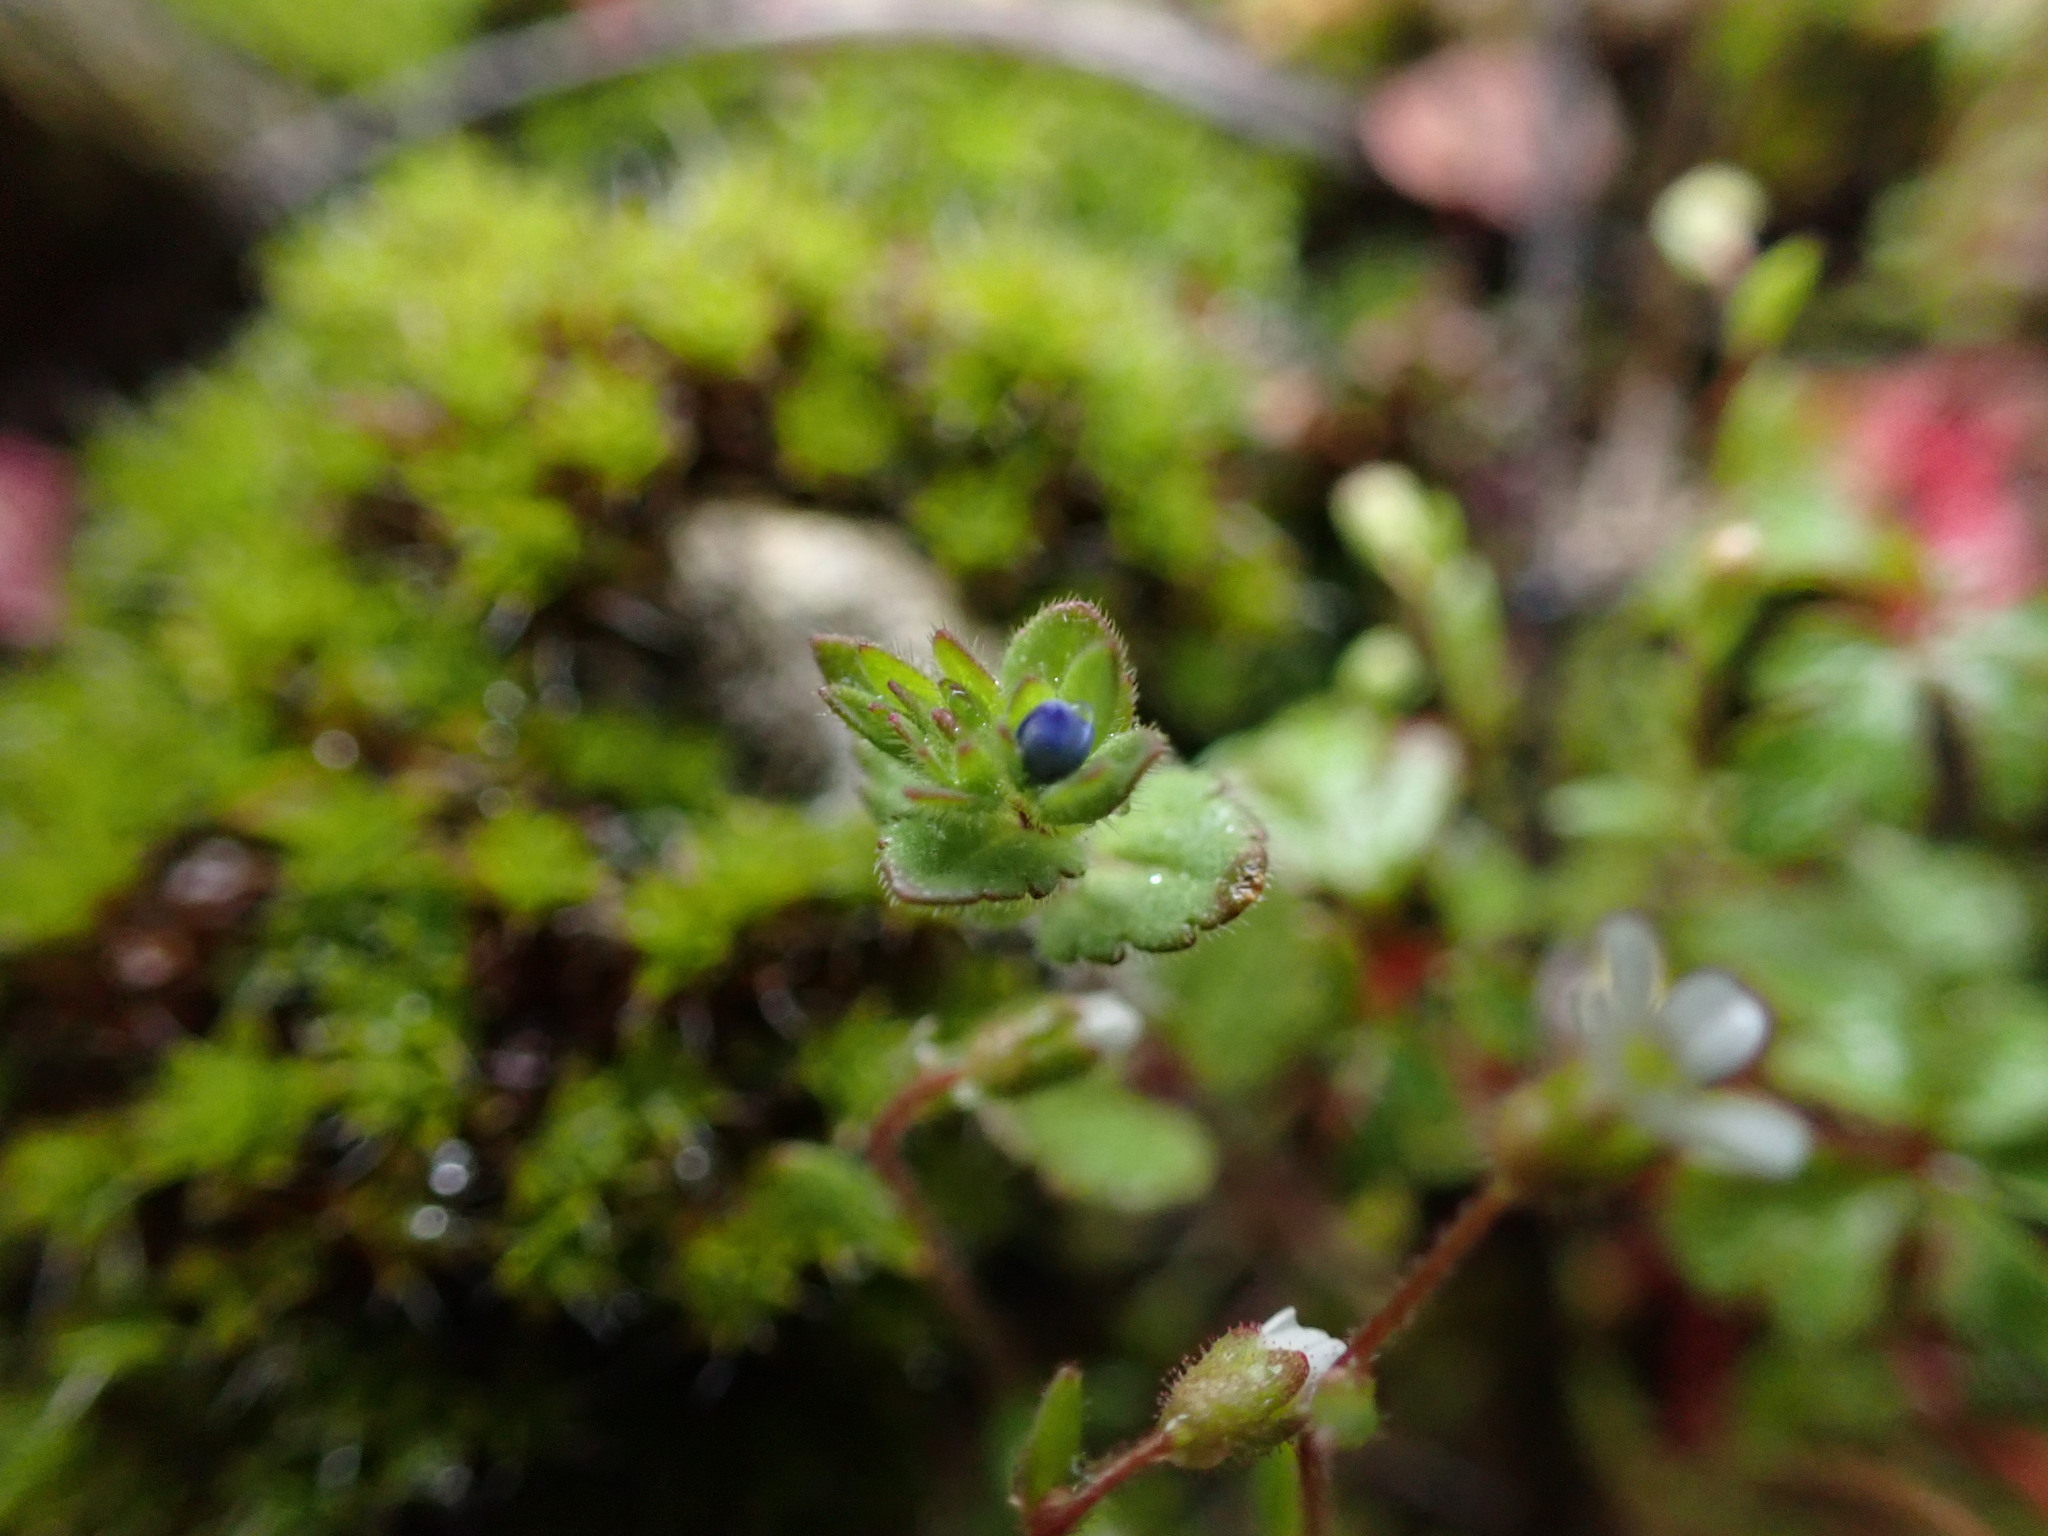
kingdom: Plantae
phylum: Tracheophyta
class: Magnoliopsida
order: Lamiales
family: Plantaginaceae
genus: Veronica
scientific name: Veronica arvensis
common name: Corn speedwell
